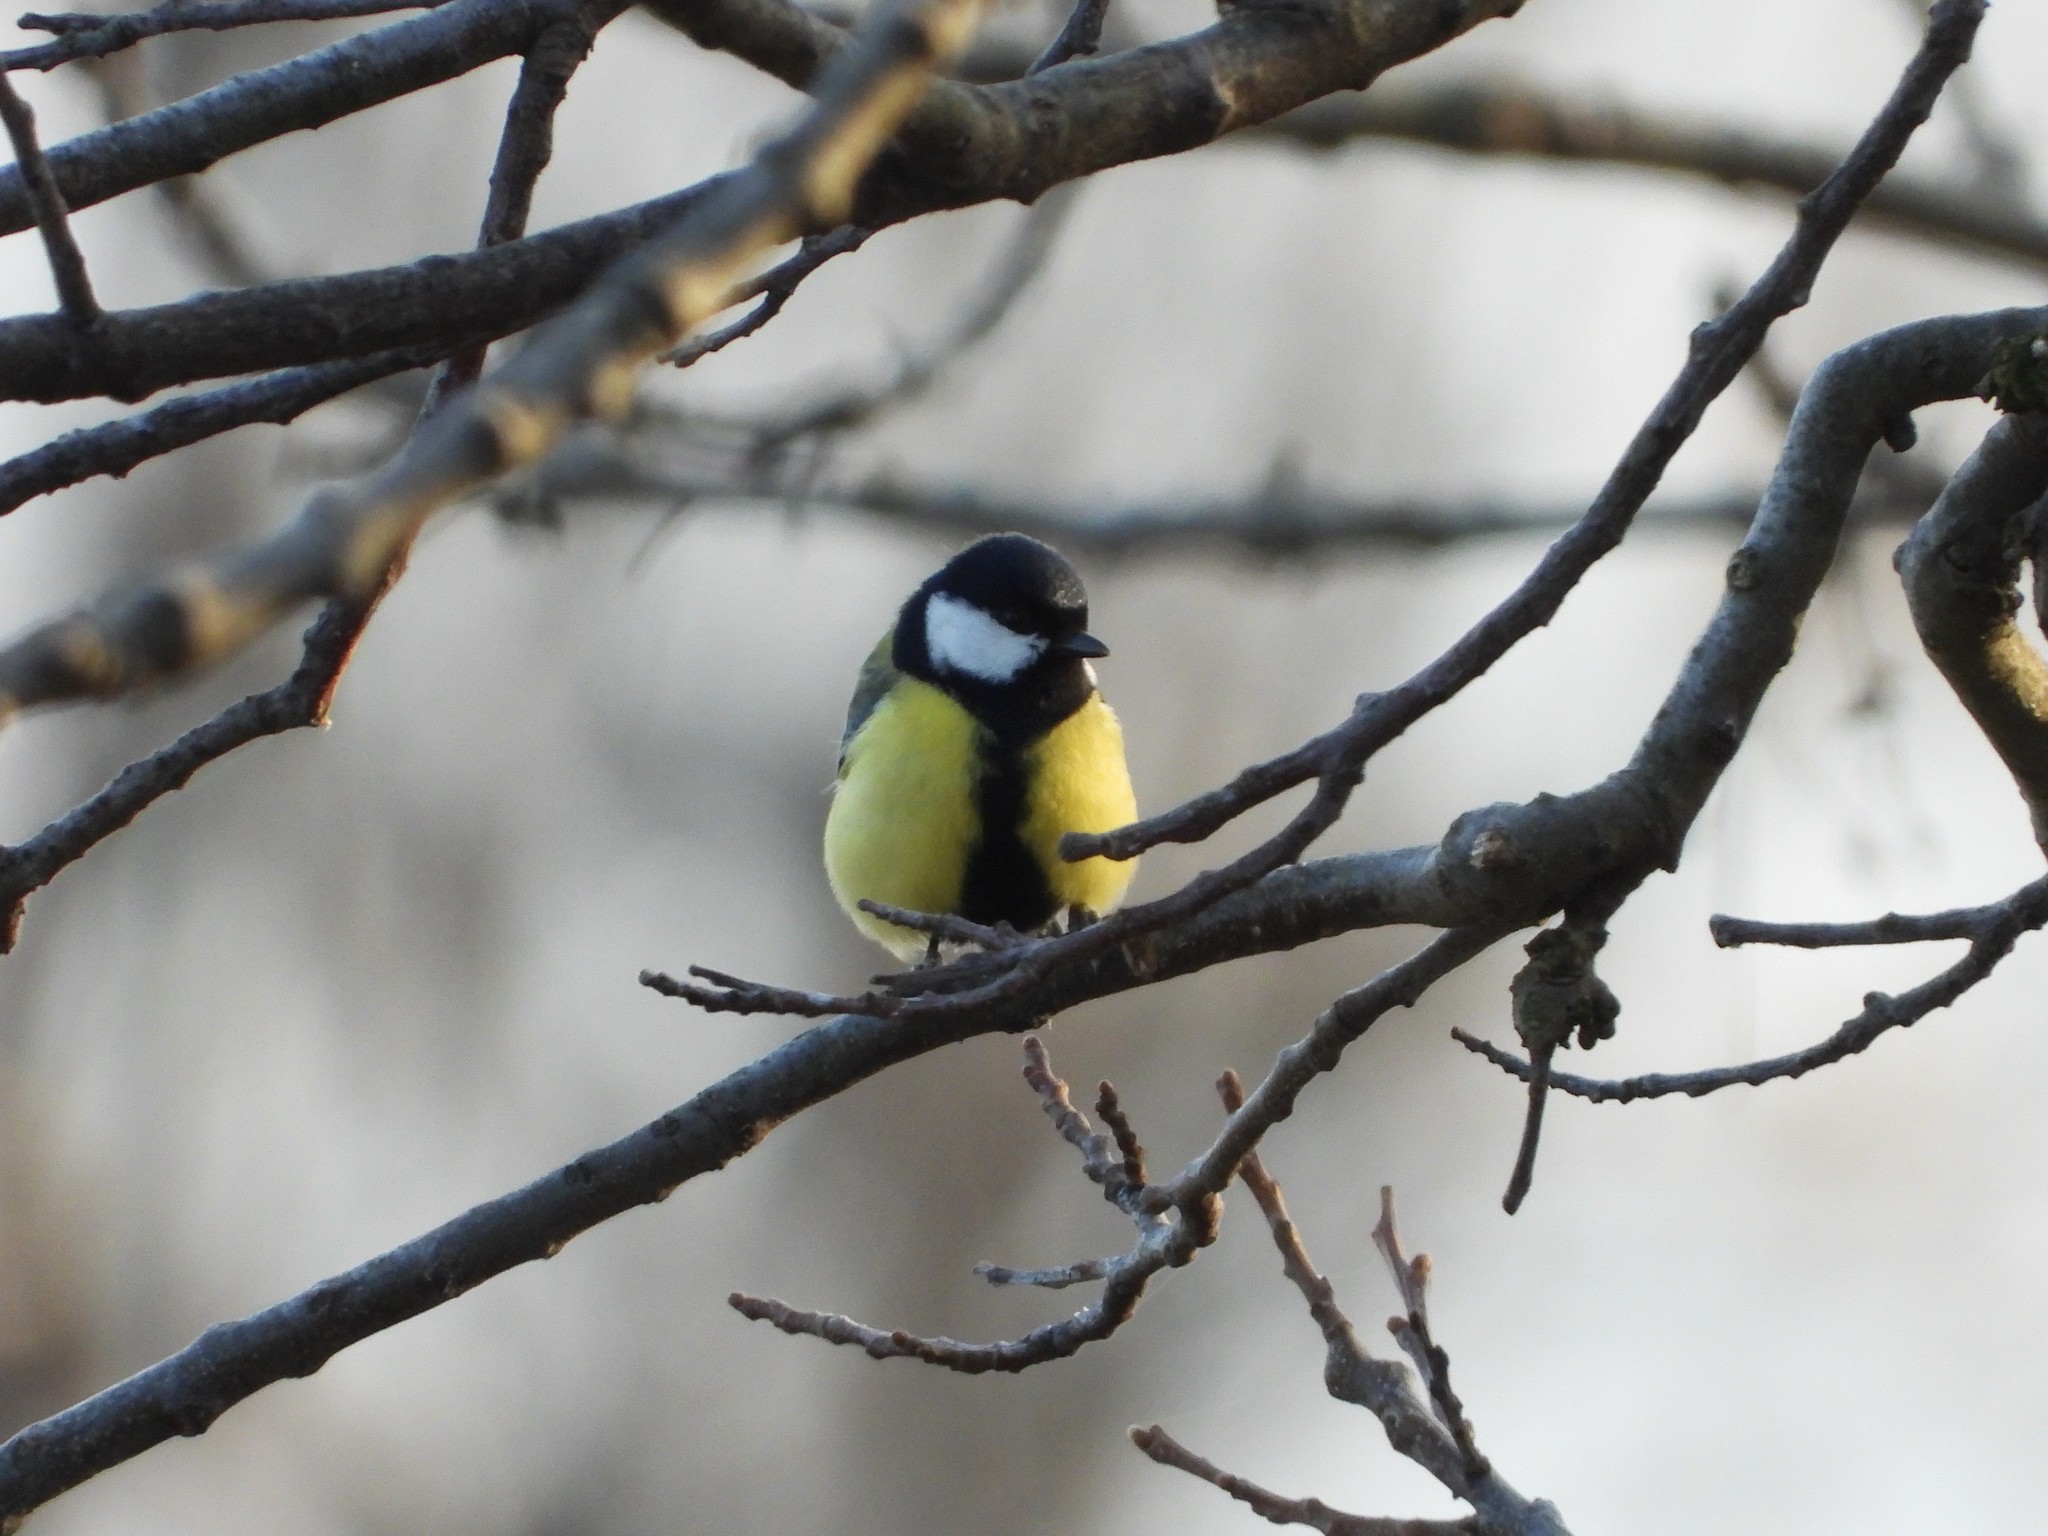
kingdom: Animalia
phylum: Chordata
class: Aves
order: Passeriformes
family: Paridae
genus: Parus
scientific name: Parus major
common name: Great tit
